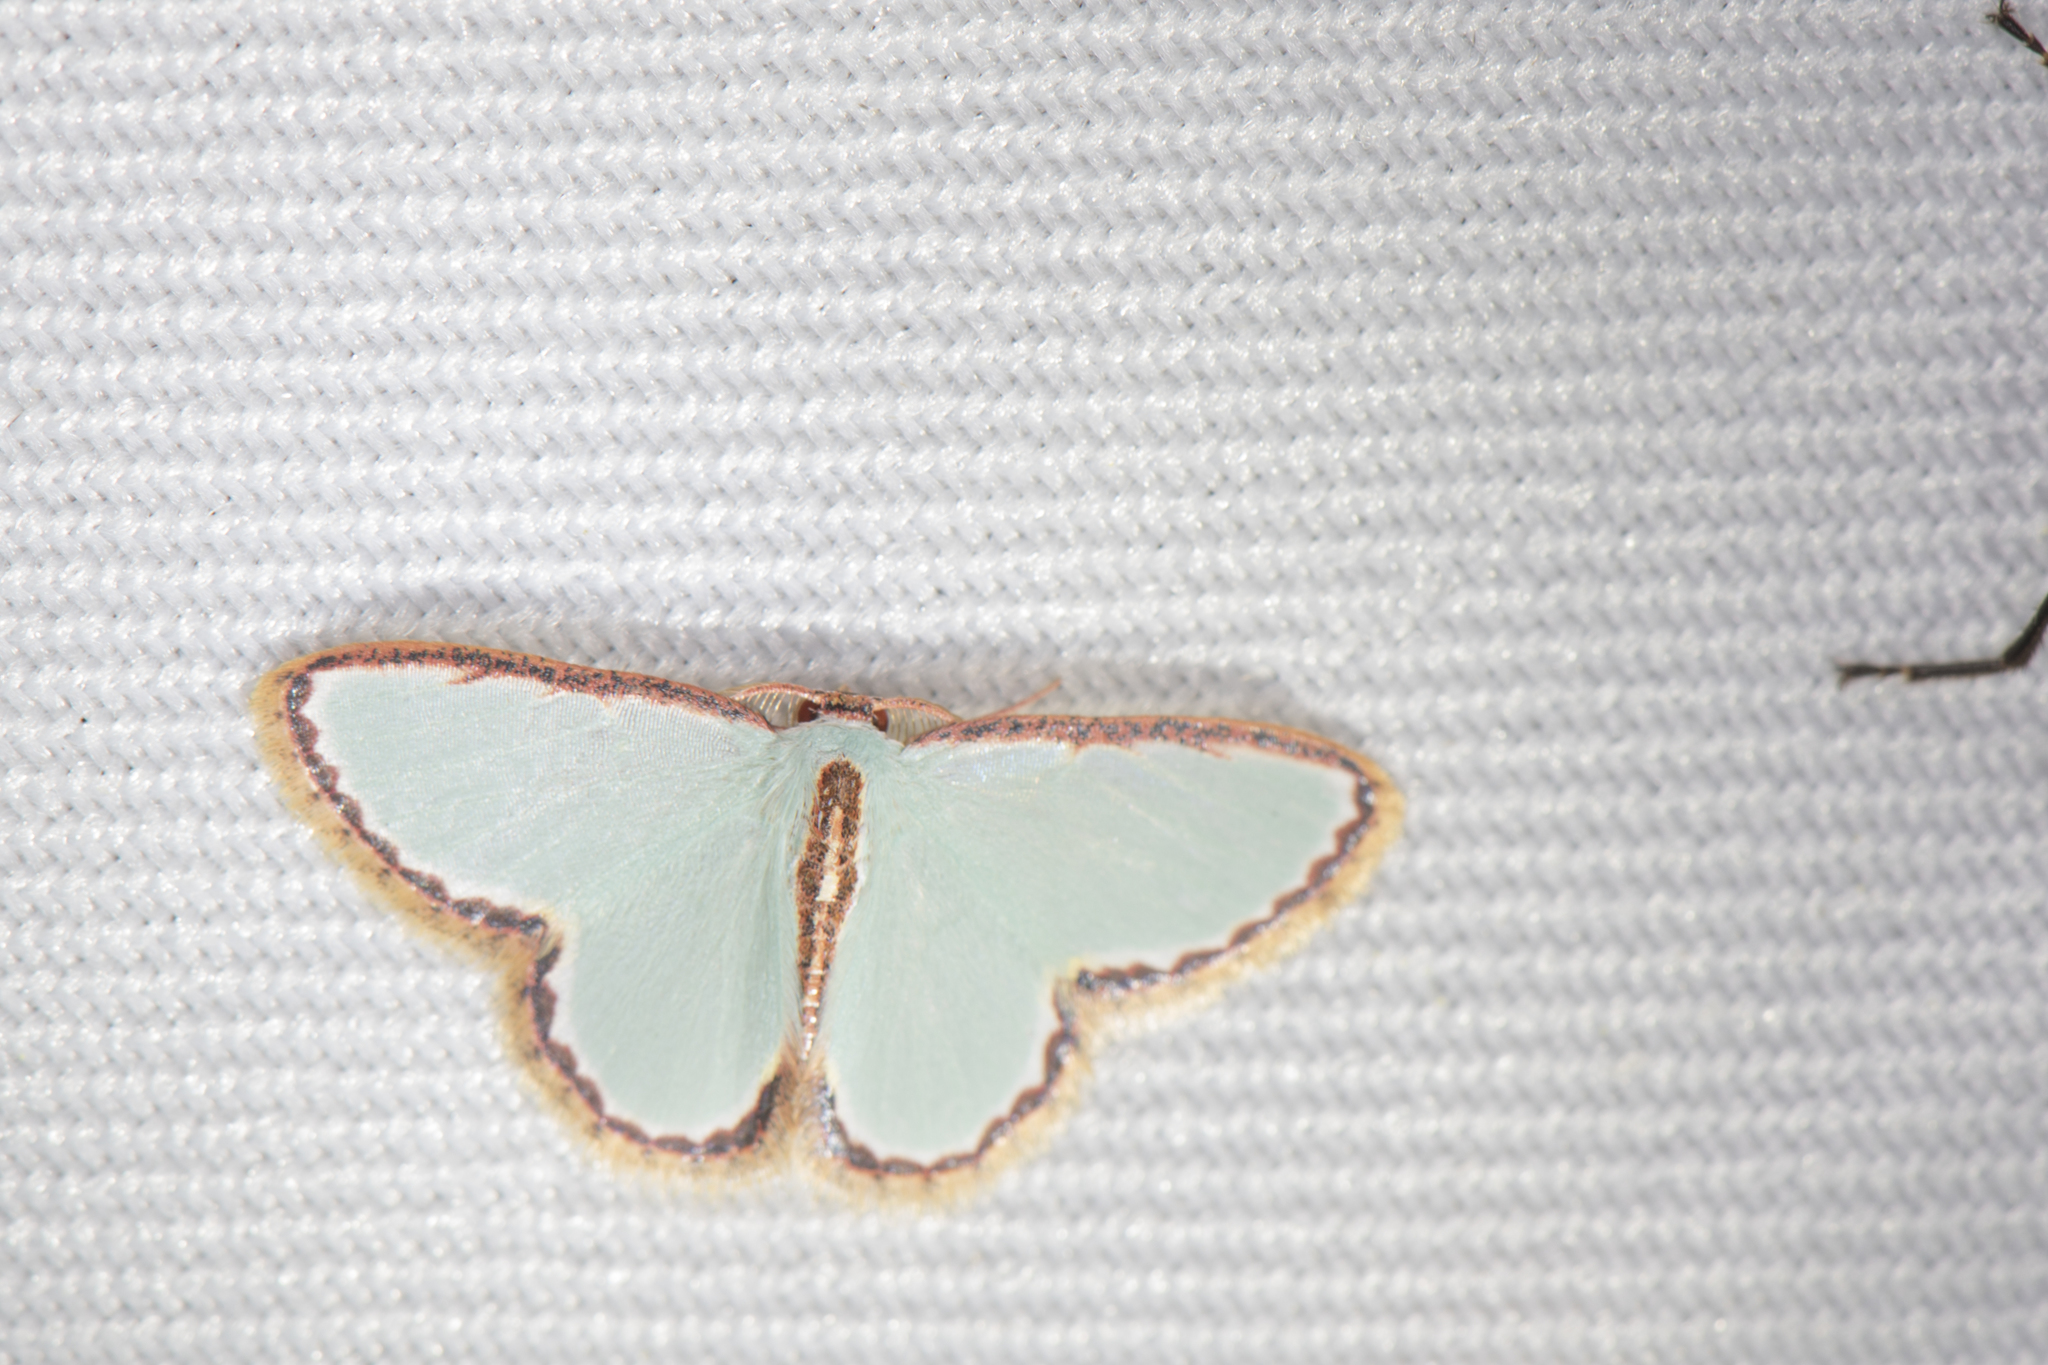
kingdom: Animalia
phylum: Arthropoda
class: Insecta
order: Lepidoptera
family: Geometridae
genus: Comostola
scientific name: Comostola pyrrhogona
